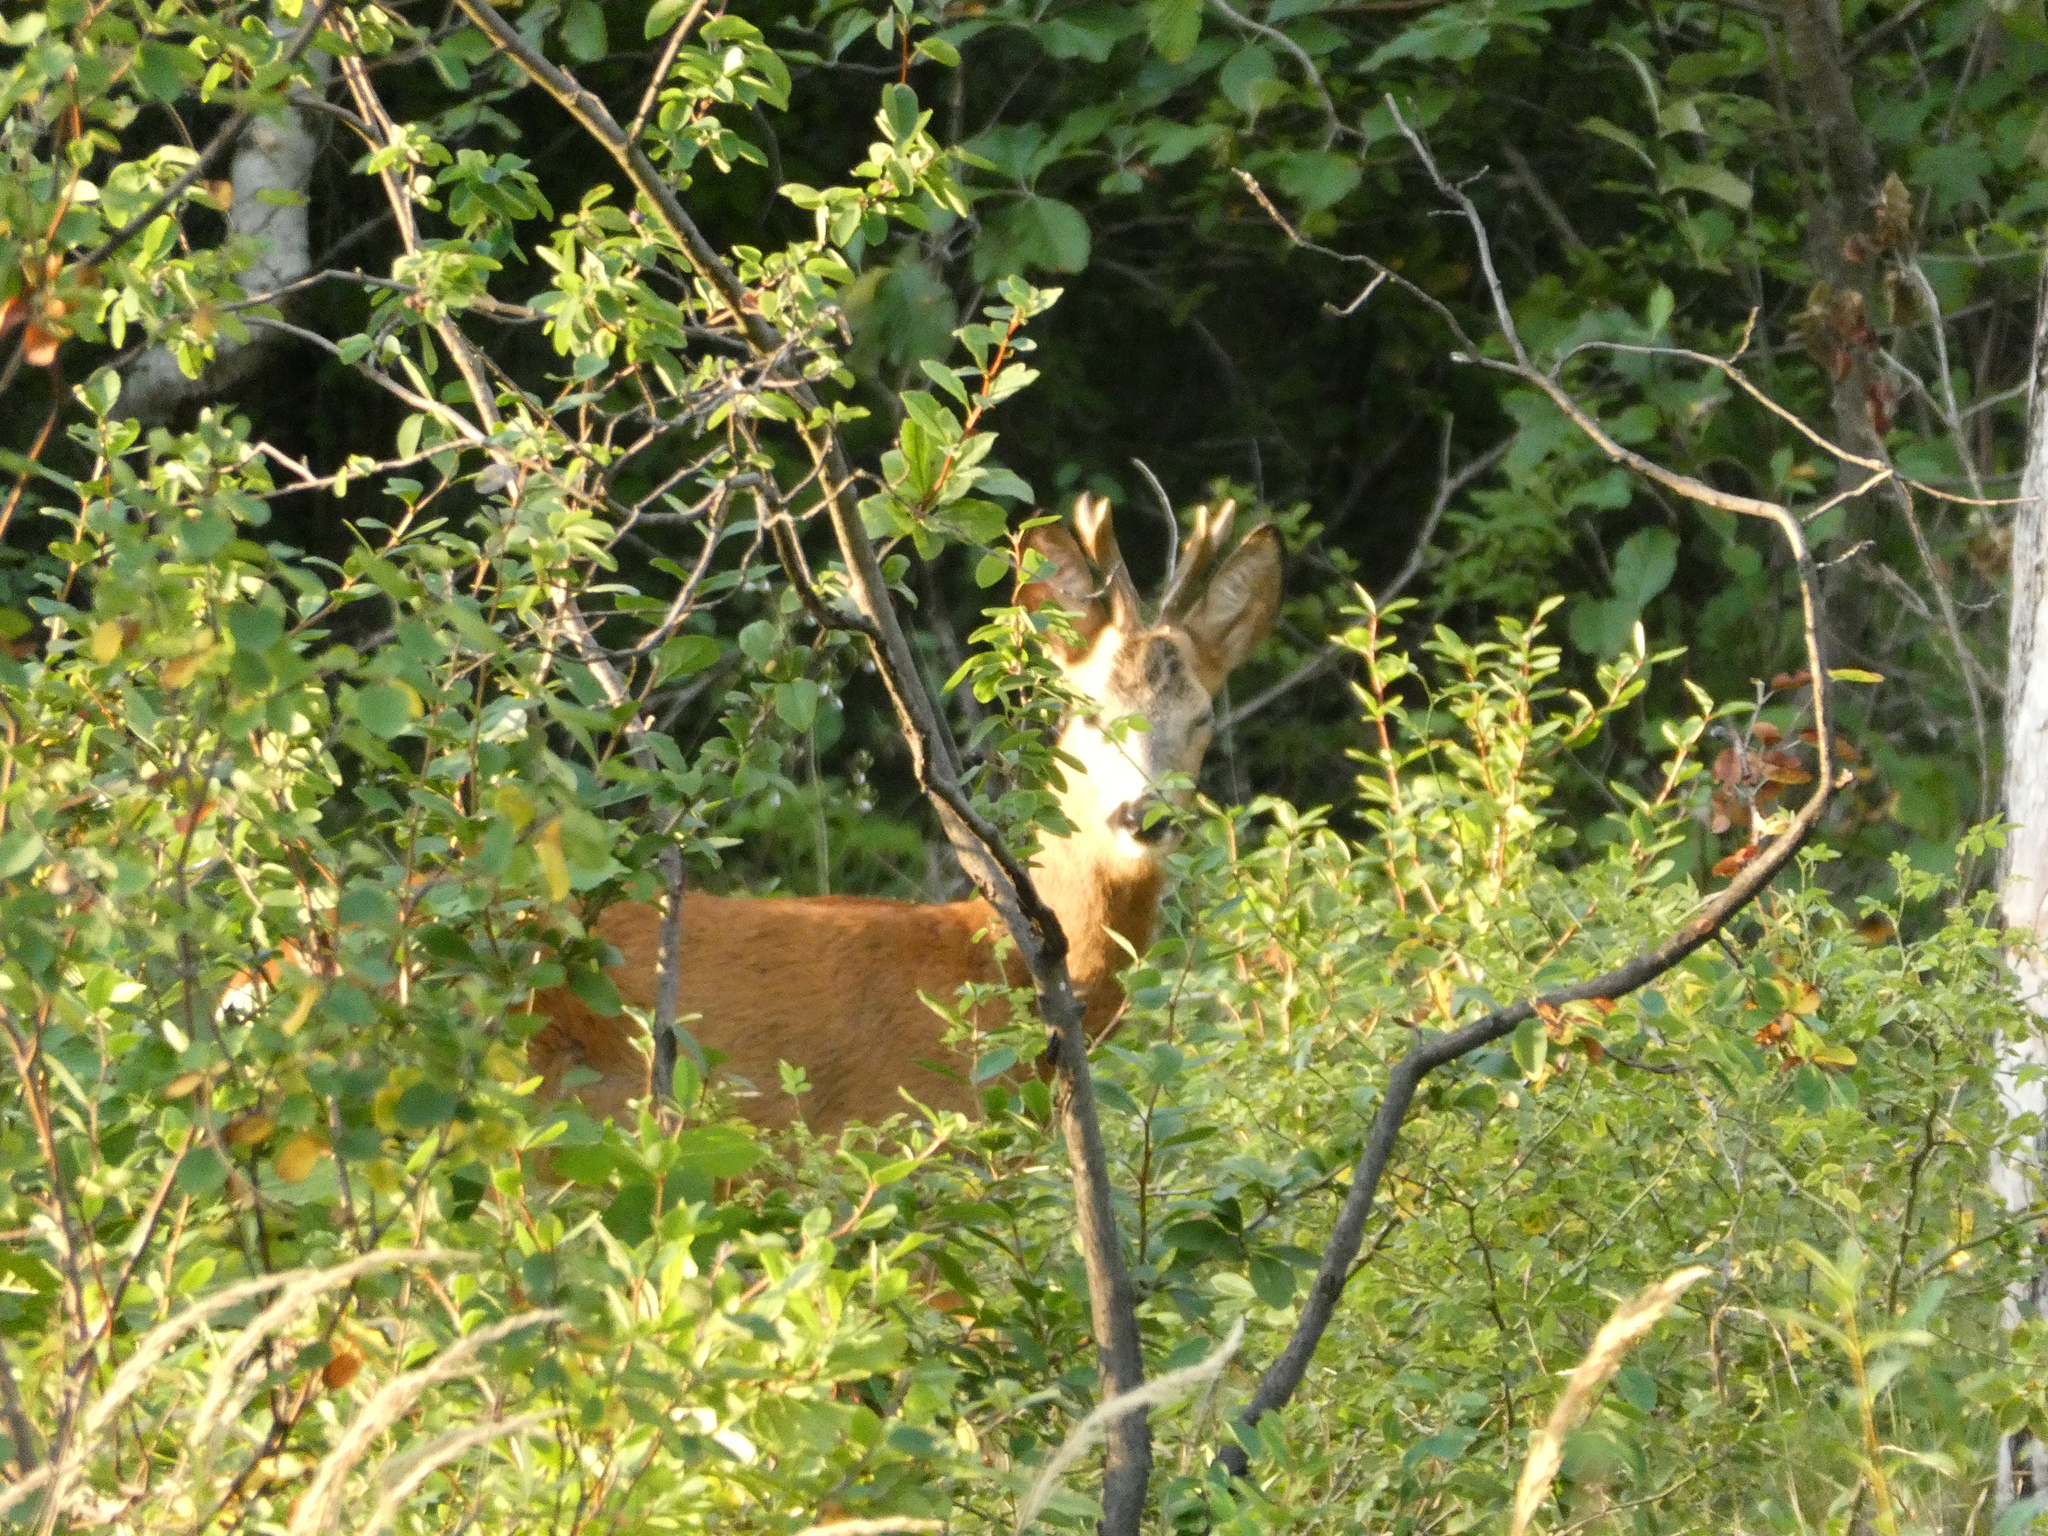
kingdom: Animalia
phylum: Chordata
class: Mammalia
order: Artiodactyla
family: Cervidae
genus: Capreolus
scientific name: Capreolus capreolus
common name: Western roe deer
